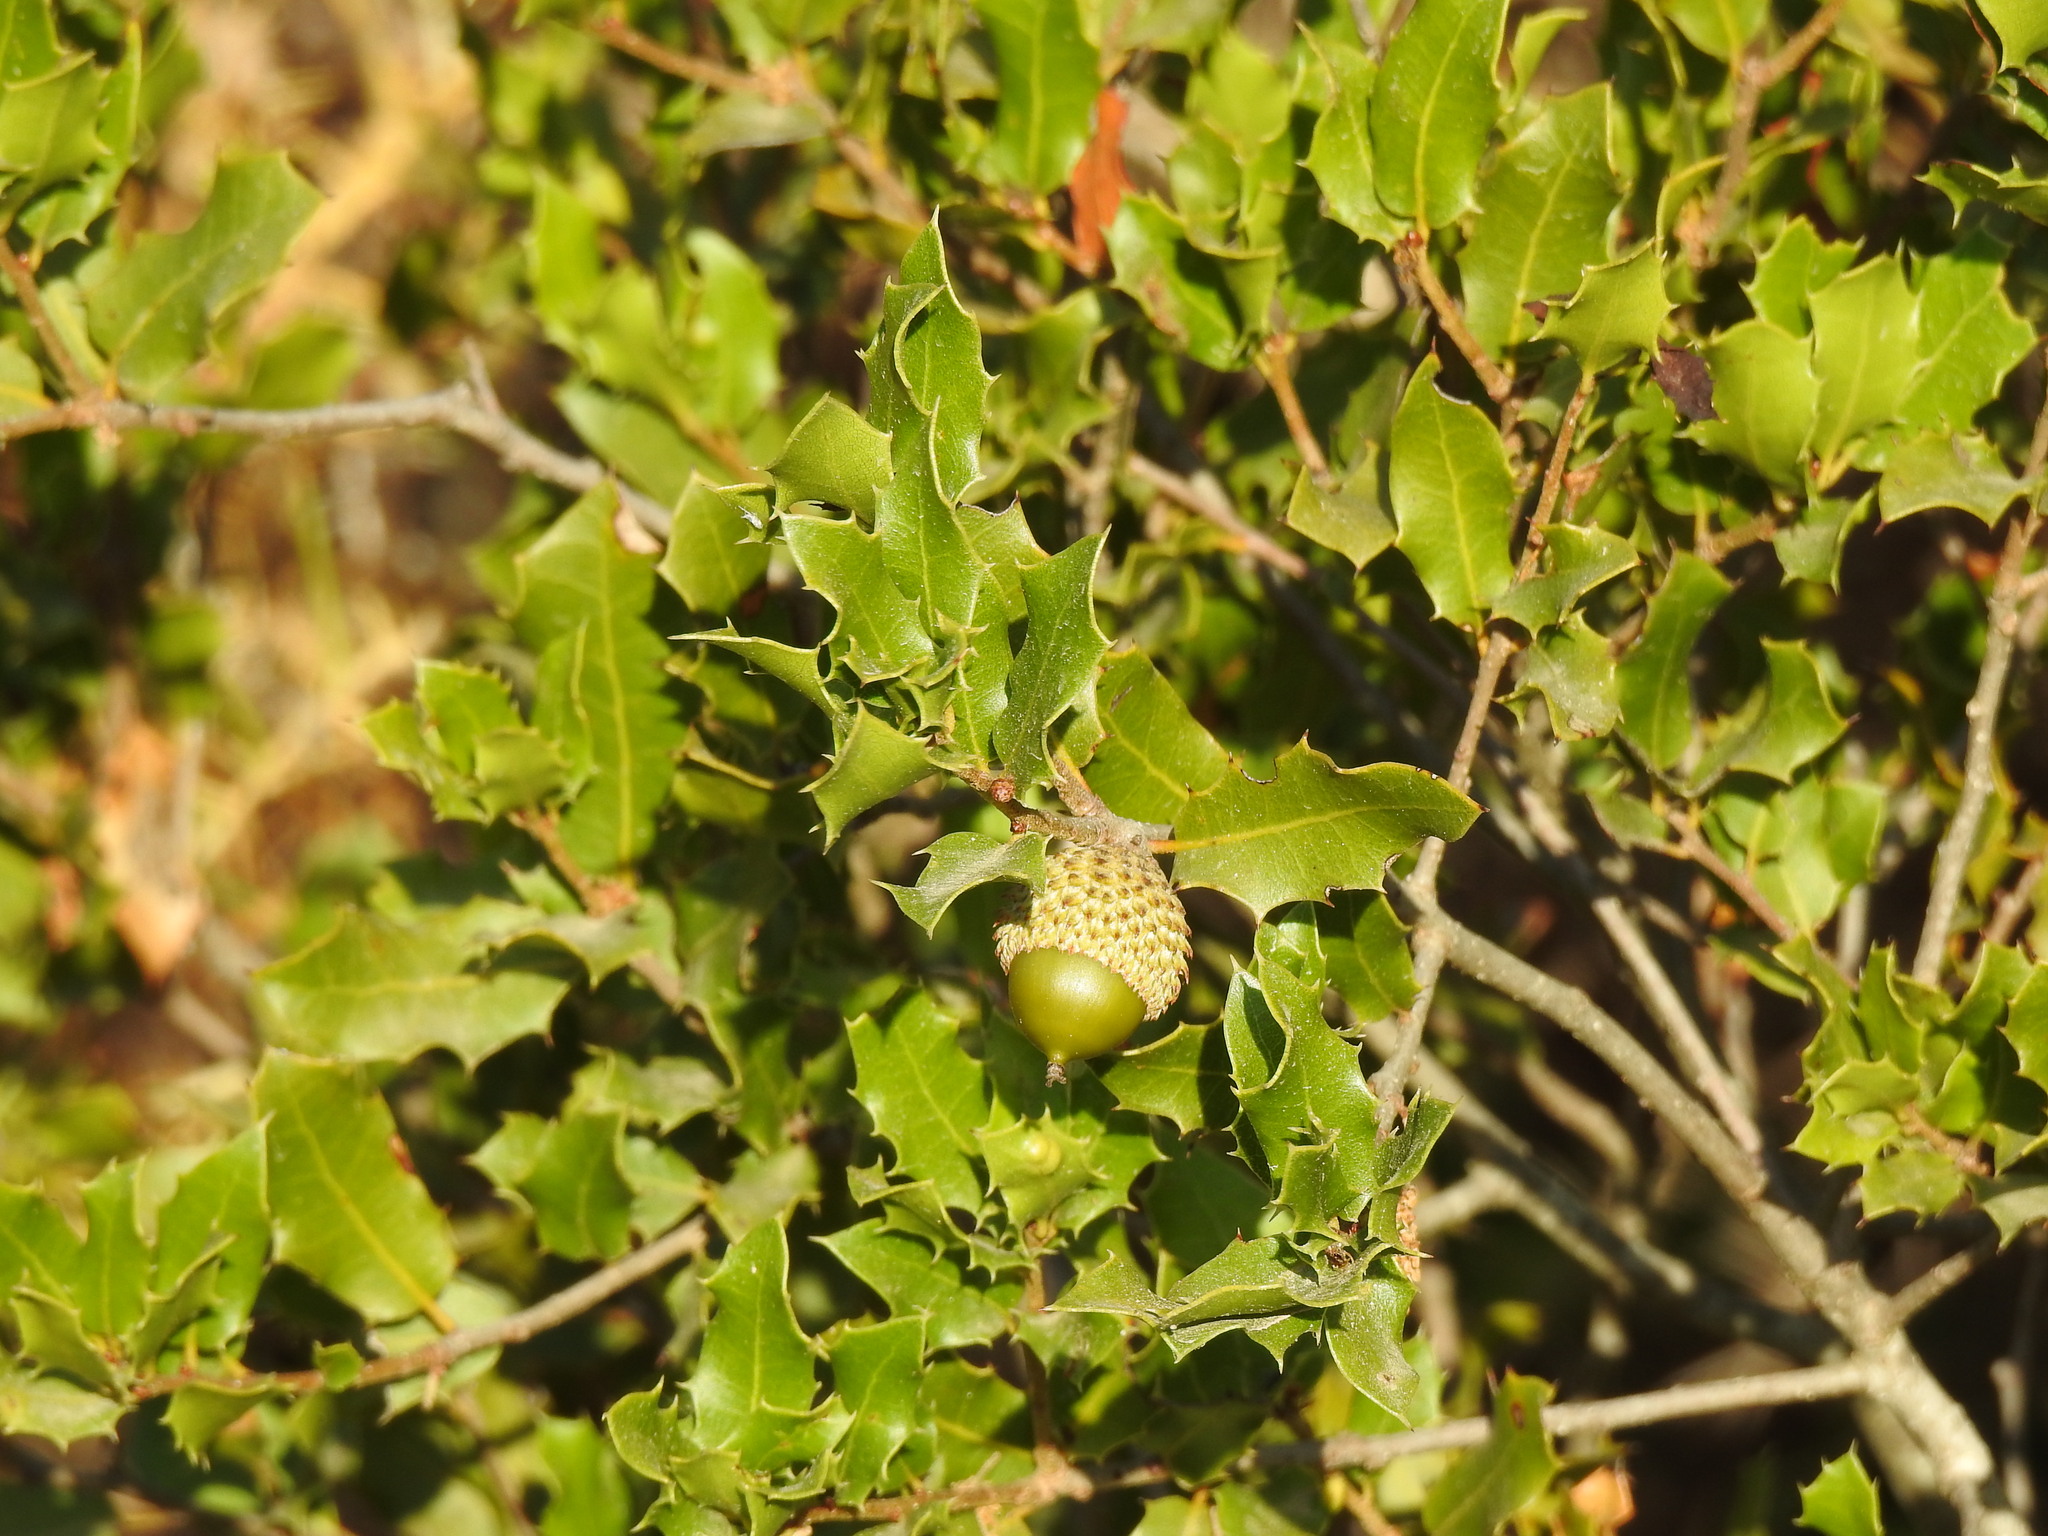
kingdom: Plantae
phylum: Tracheophyta
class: Magnoliopsida
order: Fagales
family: Fagaceae
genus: Quercus
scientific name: Quercus coccifera
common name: Kermes oak
